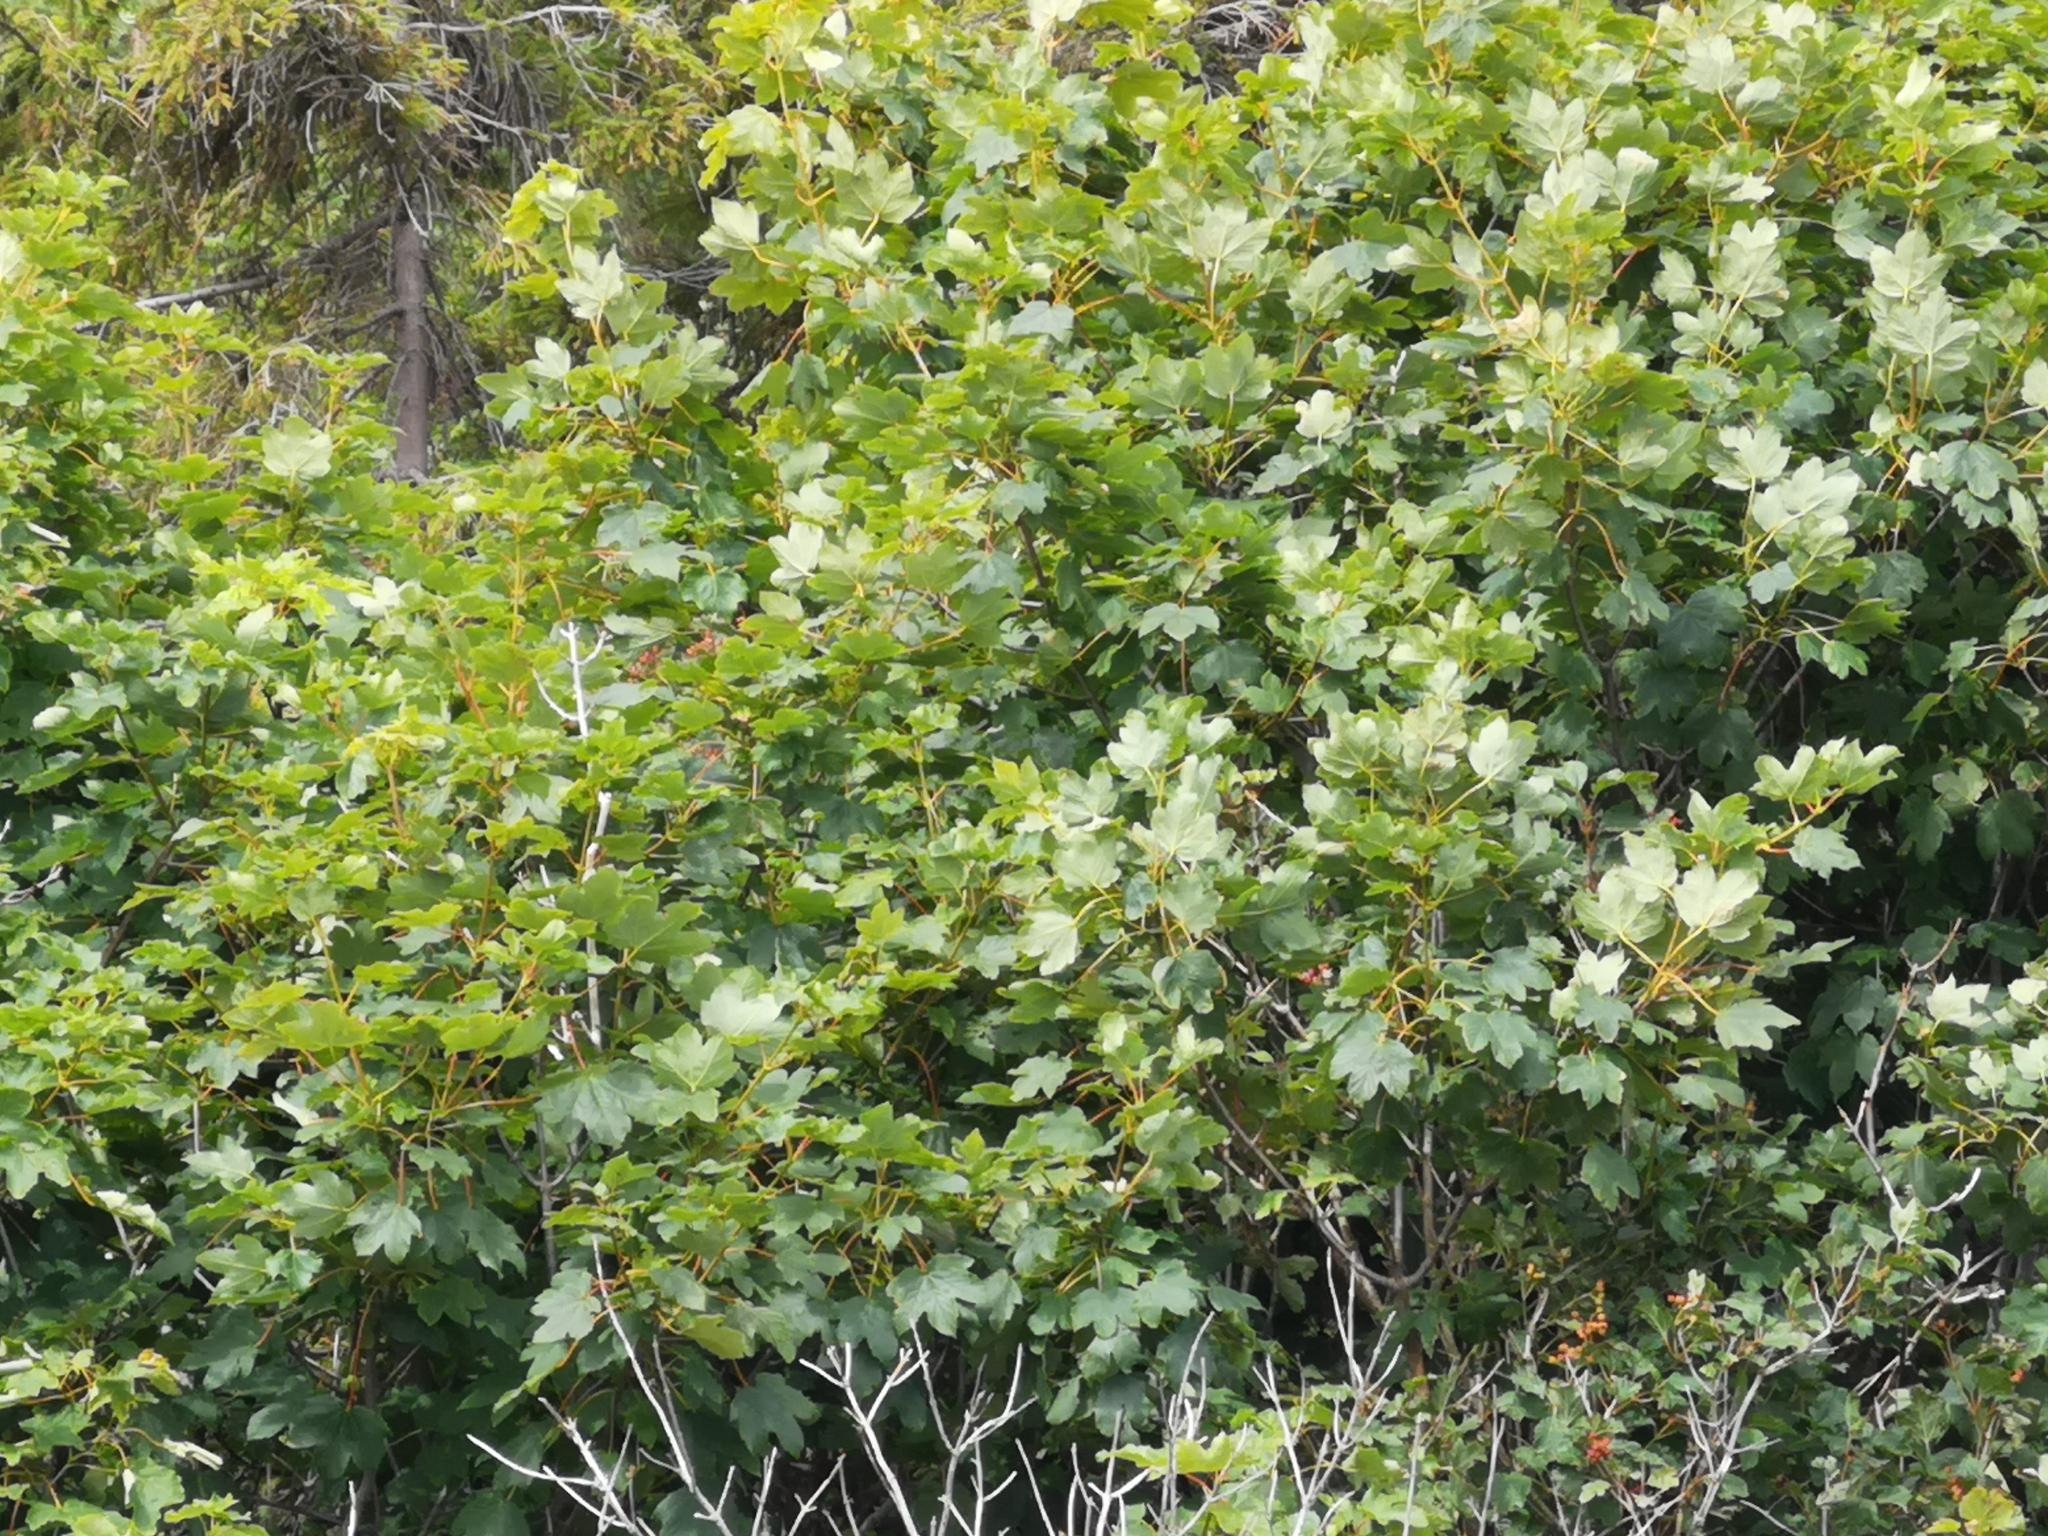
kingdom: Plantae
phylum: Tracheophyta
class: Magnoliopsida
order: Sapindales
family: Sapindaceae
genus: Acer
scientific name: Acer pseudoplatanus
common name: Sycamore
